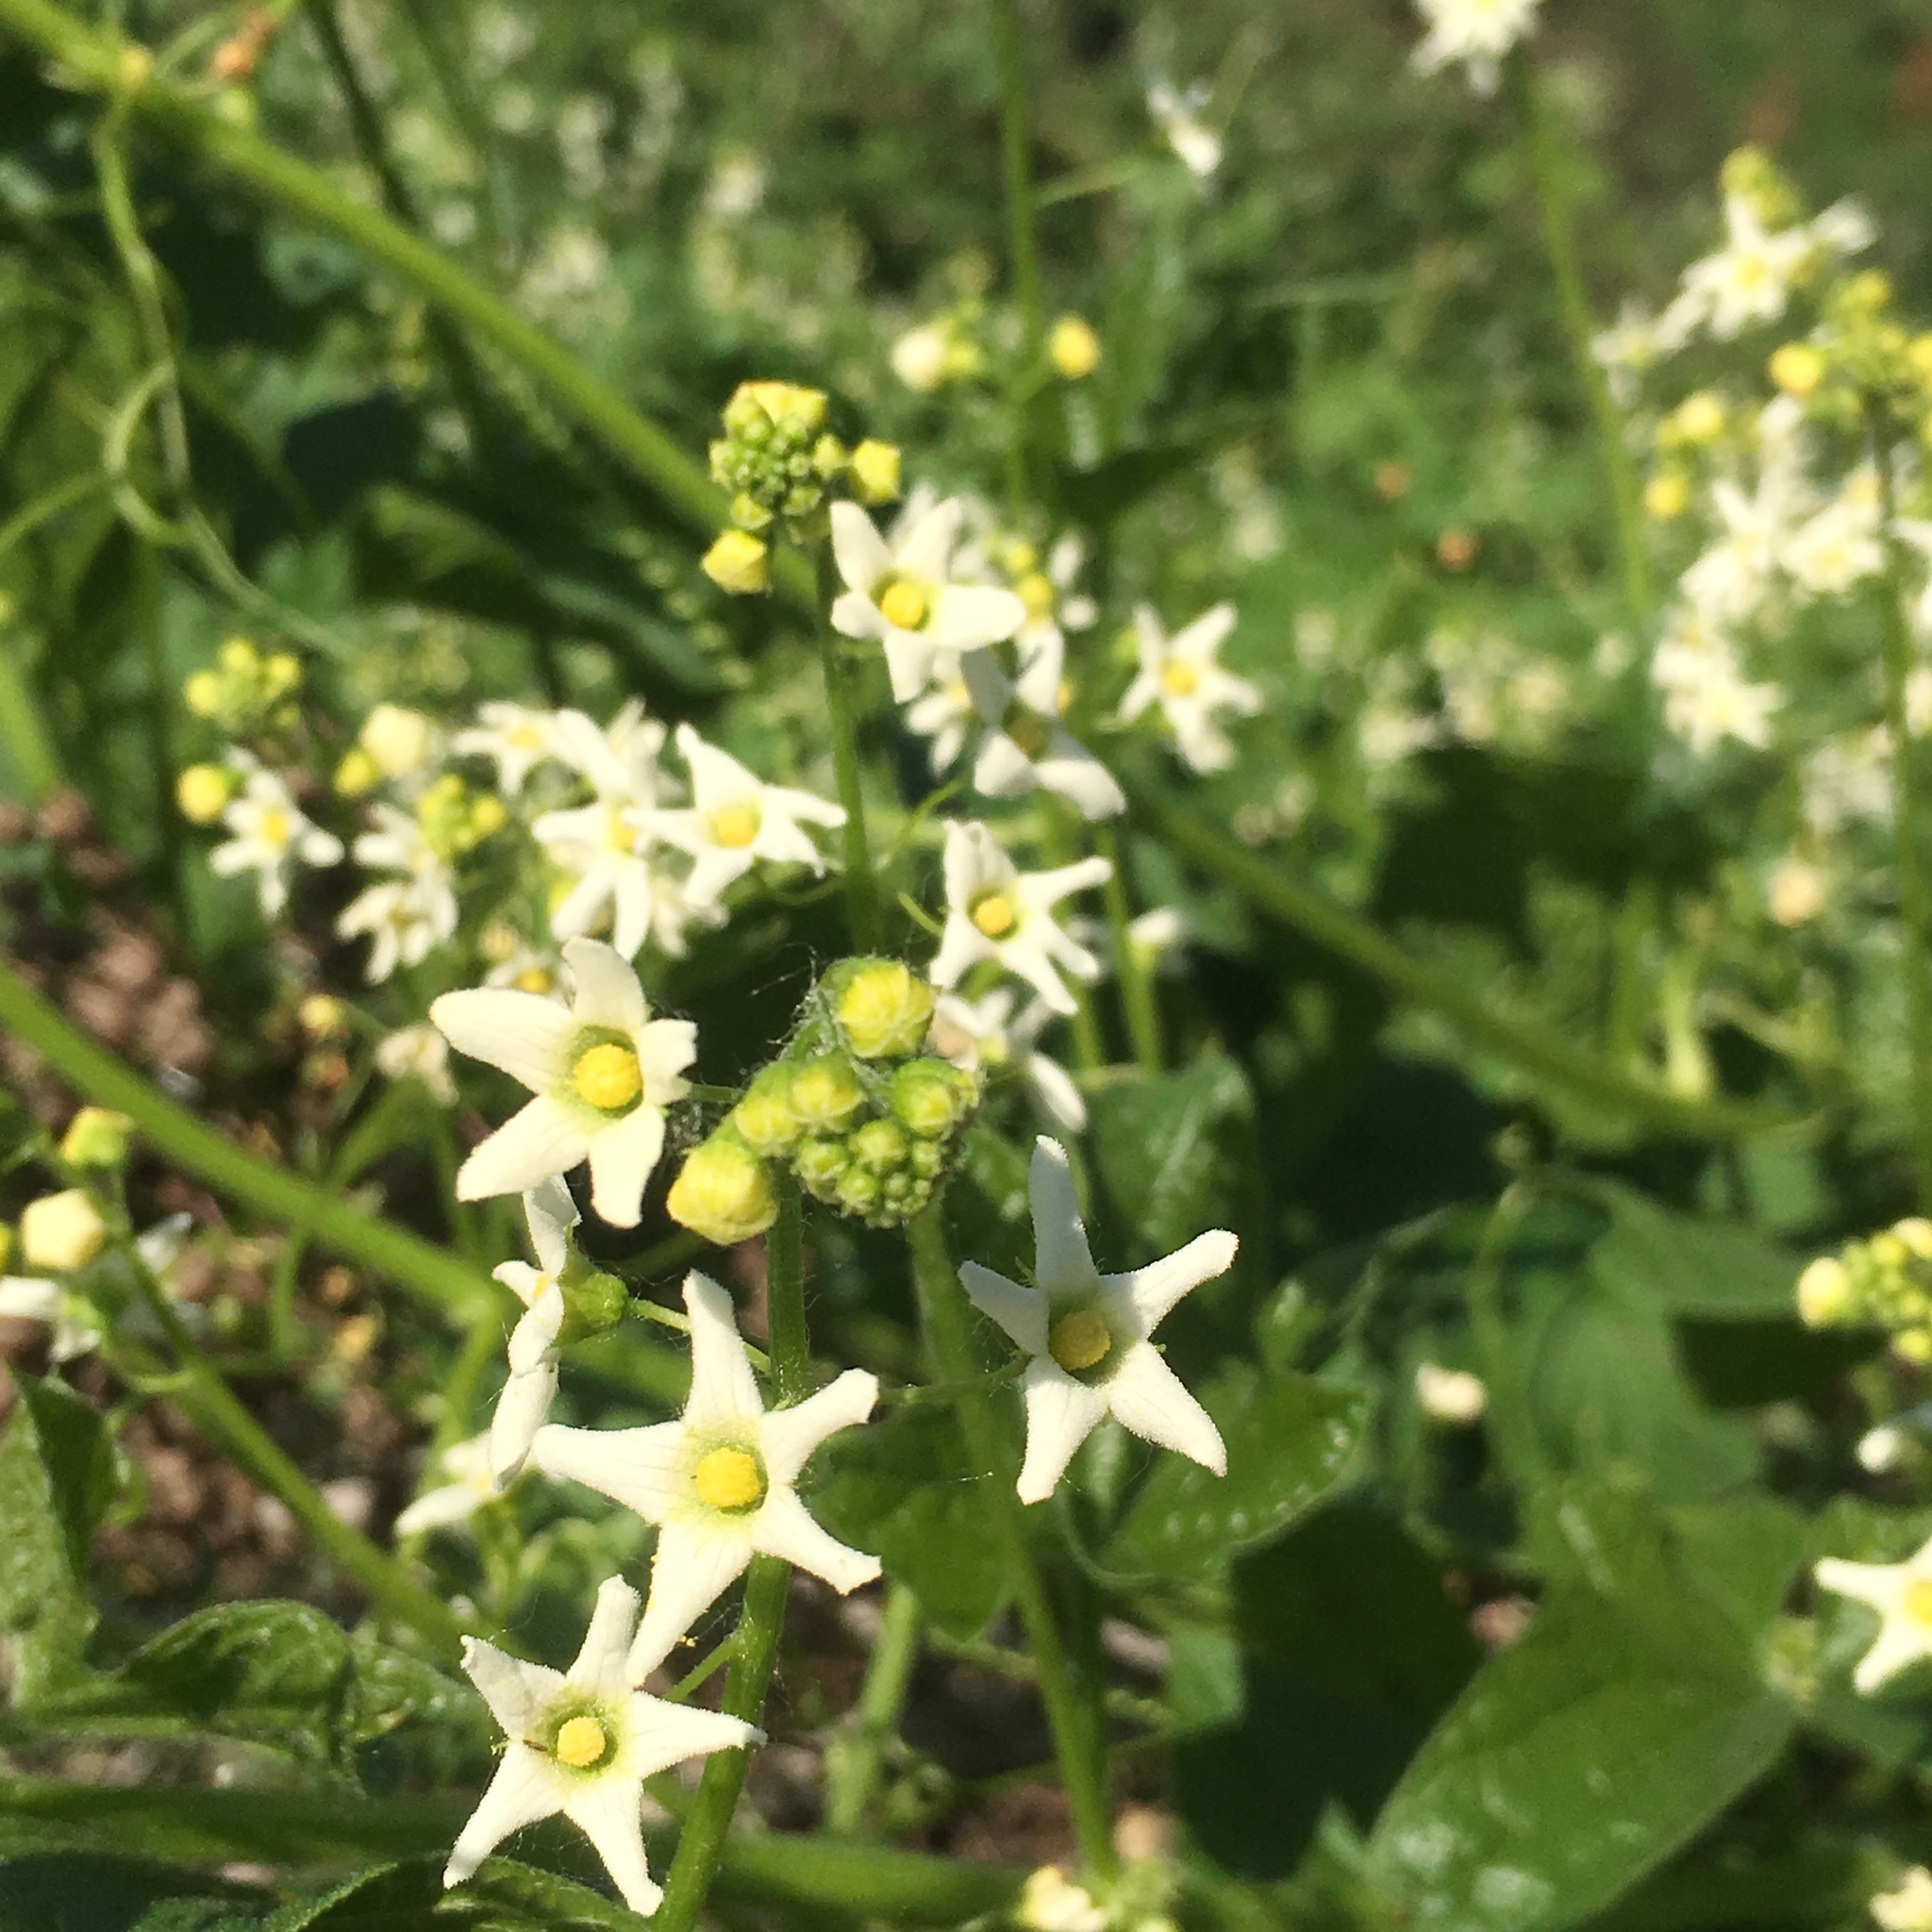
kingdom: Plantae
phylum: Tracheophyta
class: Magnoliopsida
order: Cucurbitales
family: Cucurbitaceae
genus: Marah
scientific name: Marah oregana
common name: Coastal manroot
